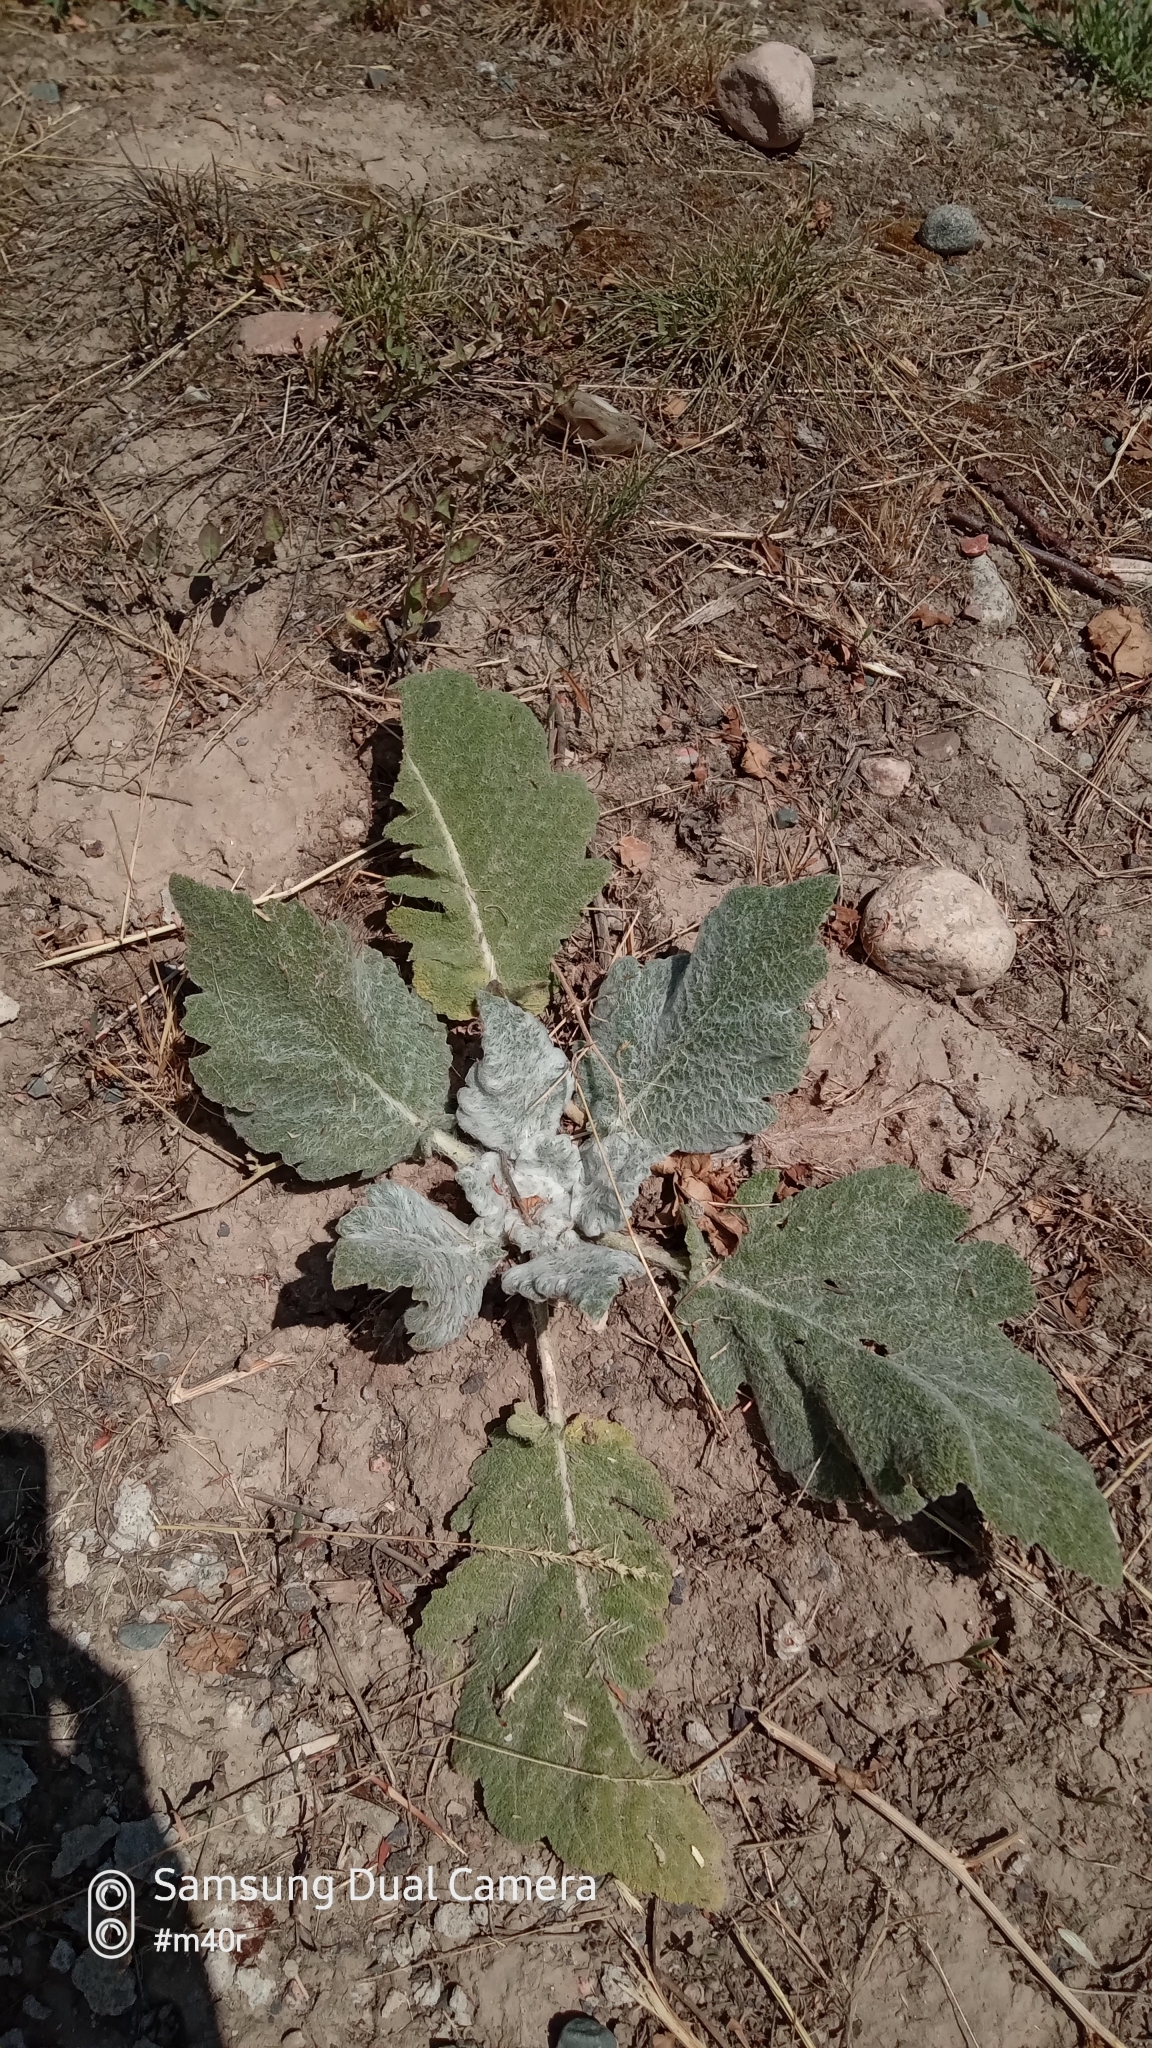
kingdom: Plantae
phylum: Tracheophyta
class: Magnoliopsida
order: Lamiales
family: Lamiaceae
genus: Salvia
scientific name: Salvia aethiopis
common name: Mediterranean sage
